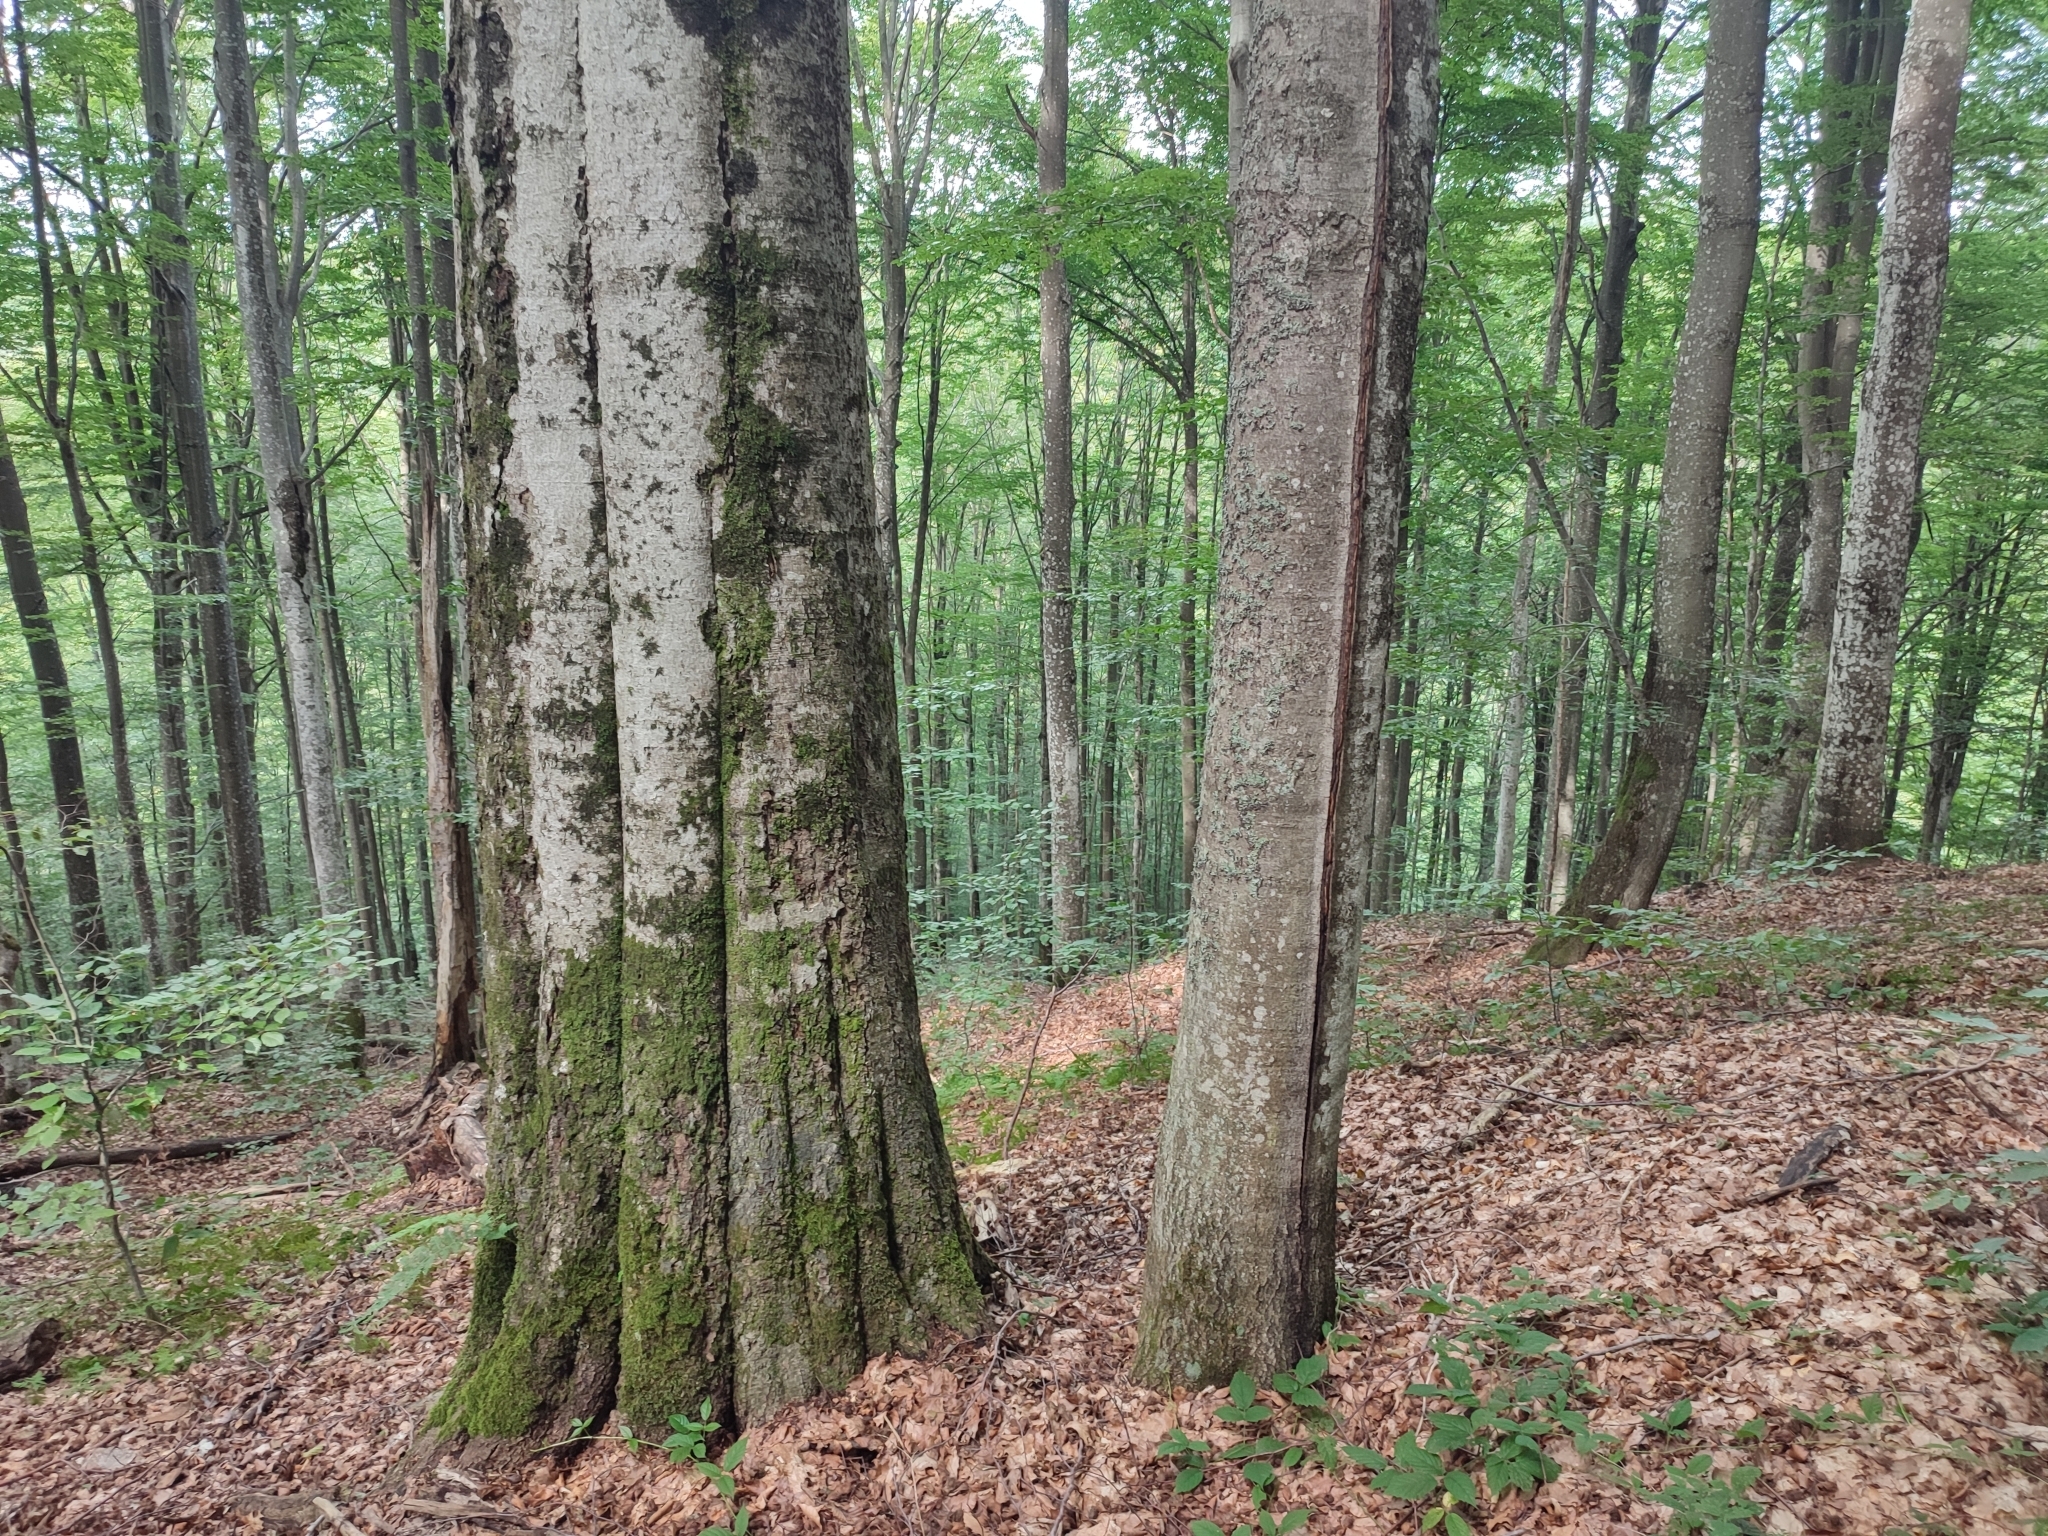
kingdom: Plantae
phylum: Tracheophyta
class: Magnoliopsida
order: Fagales
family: Fagaceae
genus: Fagus
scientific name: Fagus sylvatica
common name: Beech
